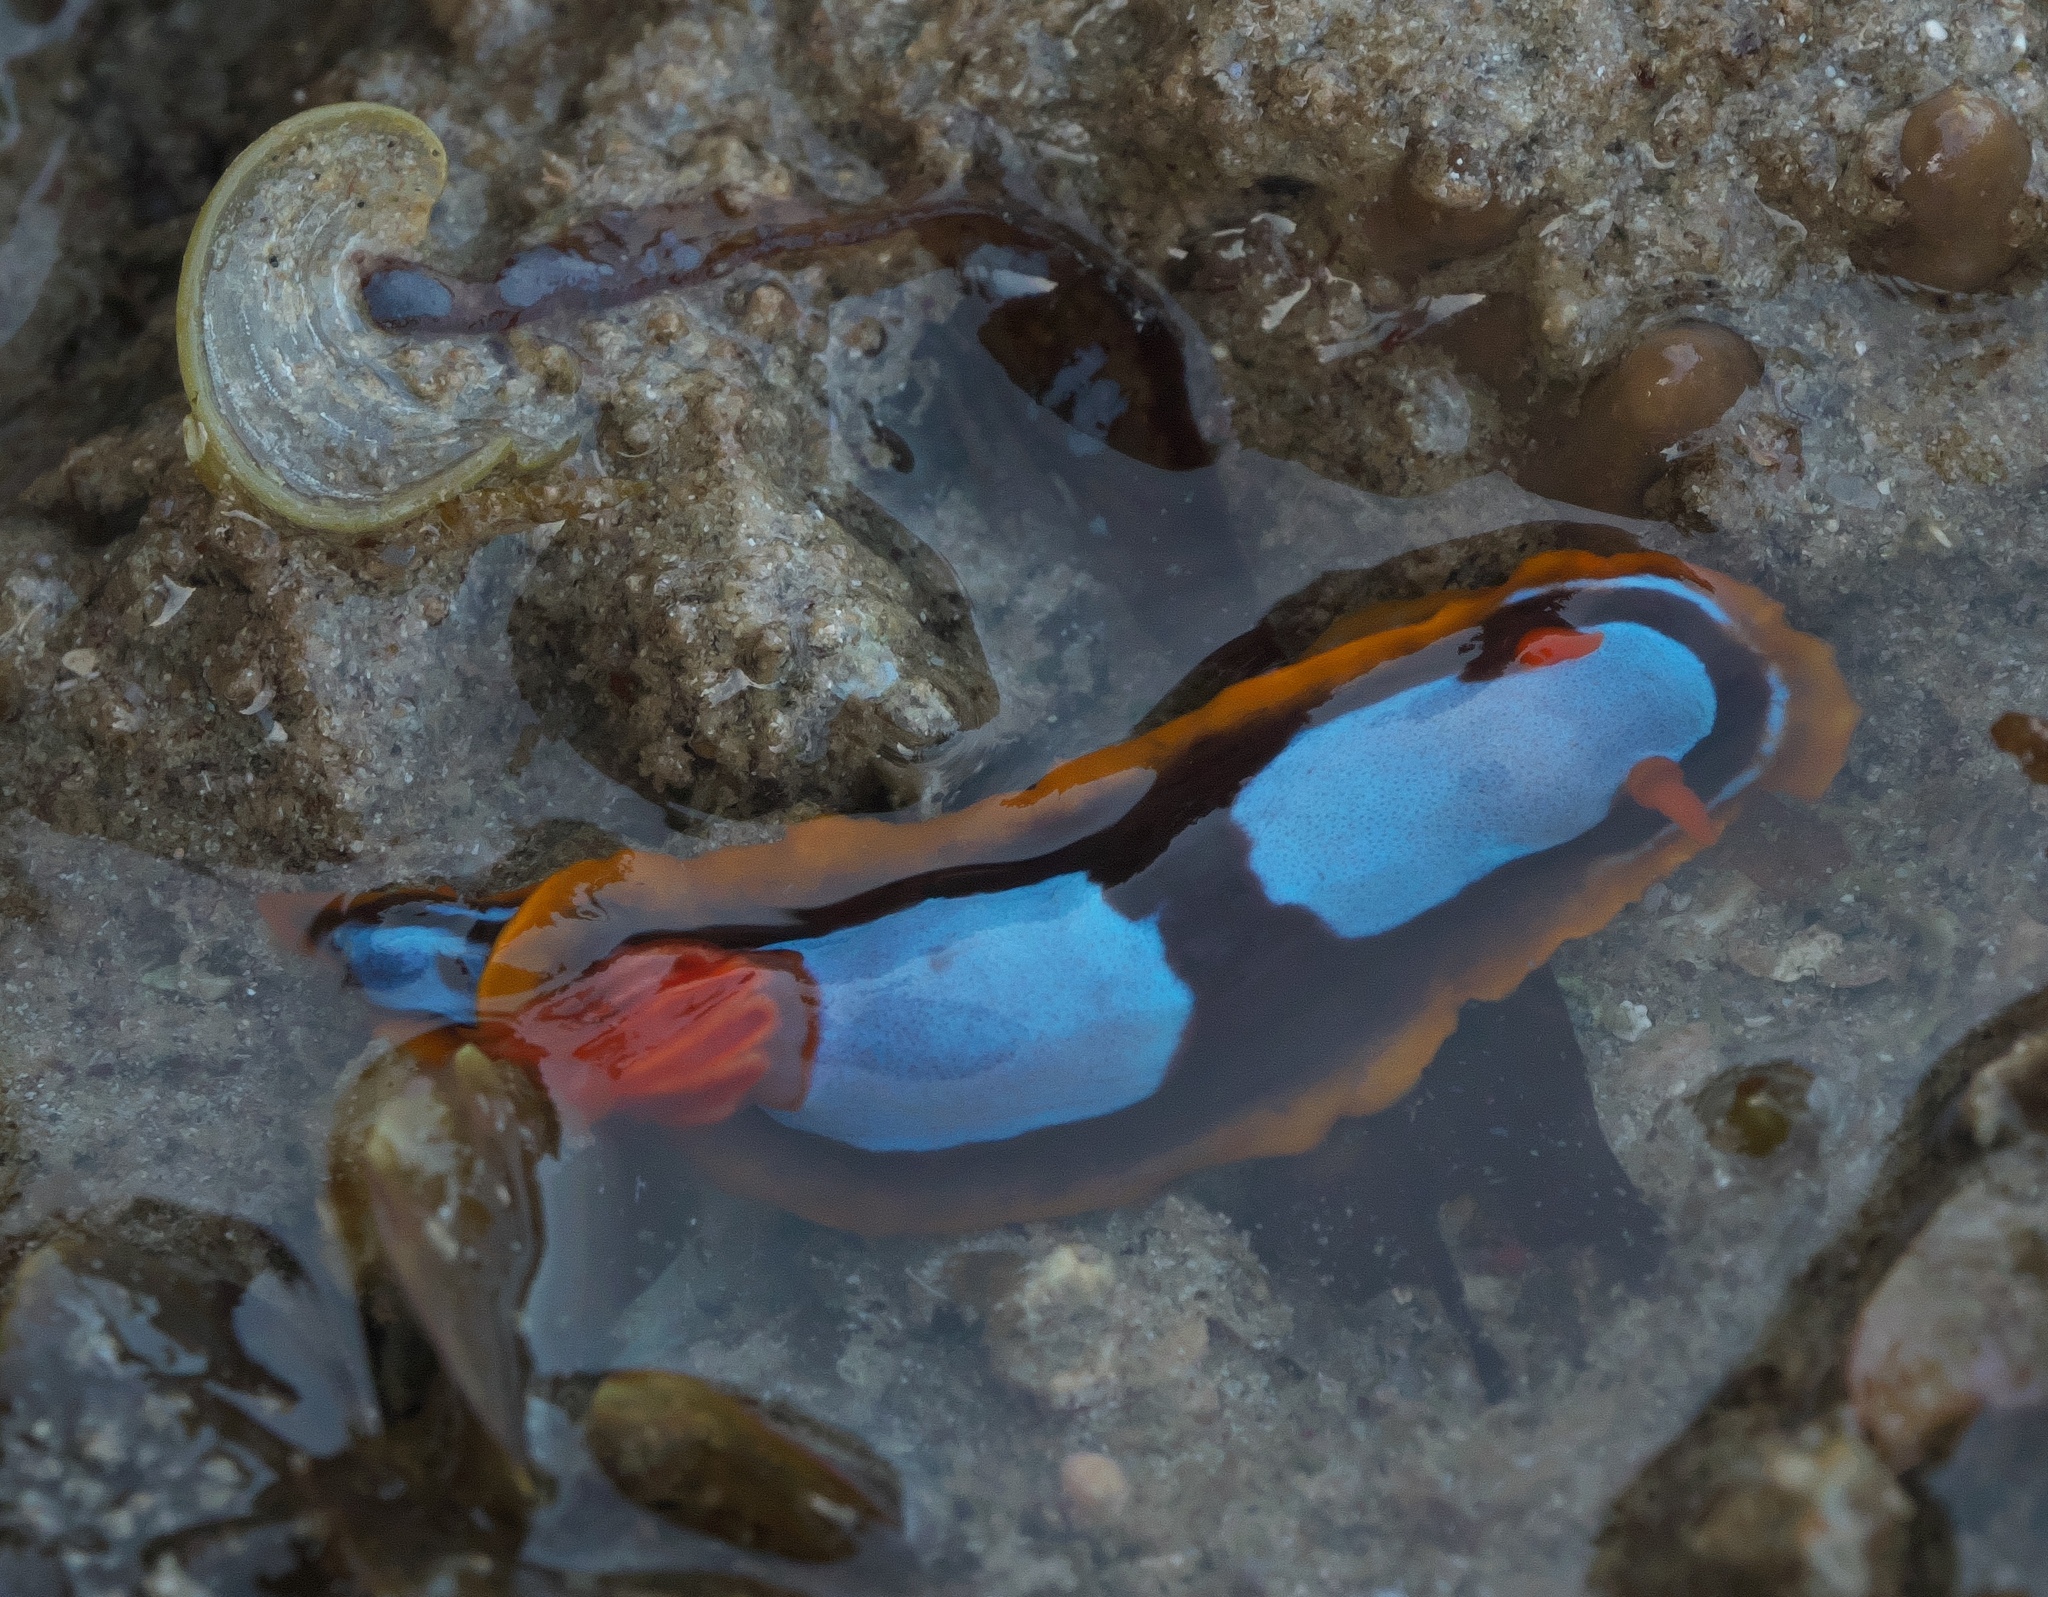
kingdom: Animalia
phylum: Mollusca
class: Gastropoda
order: Nudibranchia
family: Chromodorididae
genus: Chromodoris
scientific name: Chromodoris westraliensis
